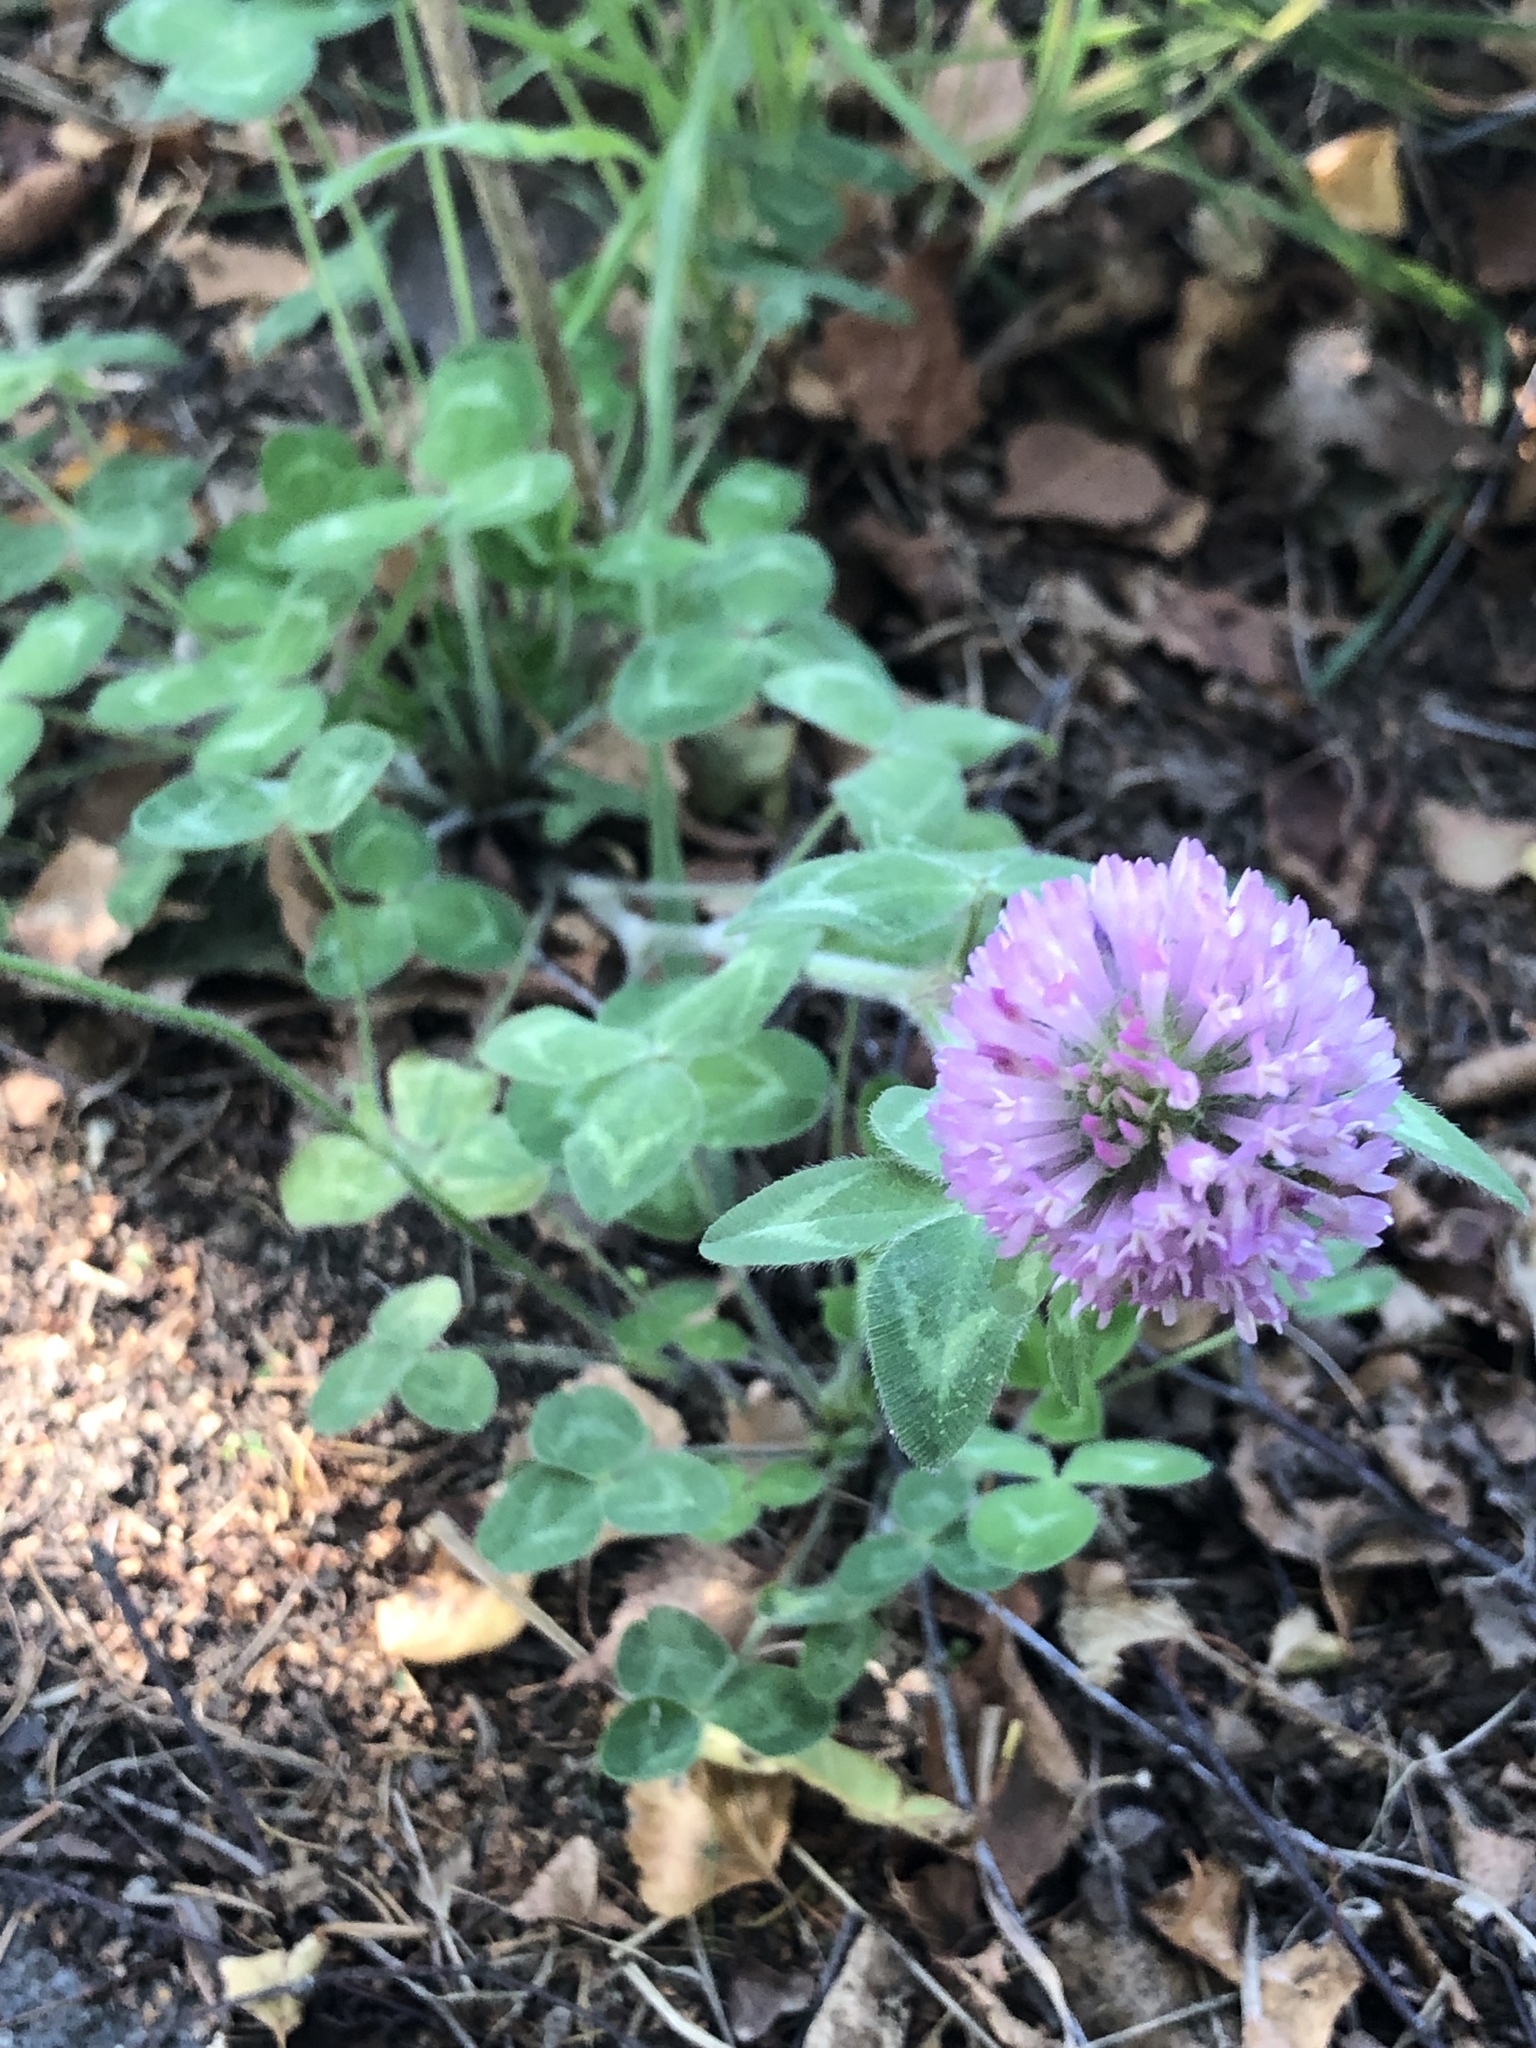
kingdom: Plantae
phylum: Tracheophyta
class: Magnoliopsida
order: Fabales
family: Fabaceae
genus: Trifolium
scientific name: Trifolium pratense
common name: Red clover
